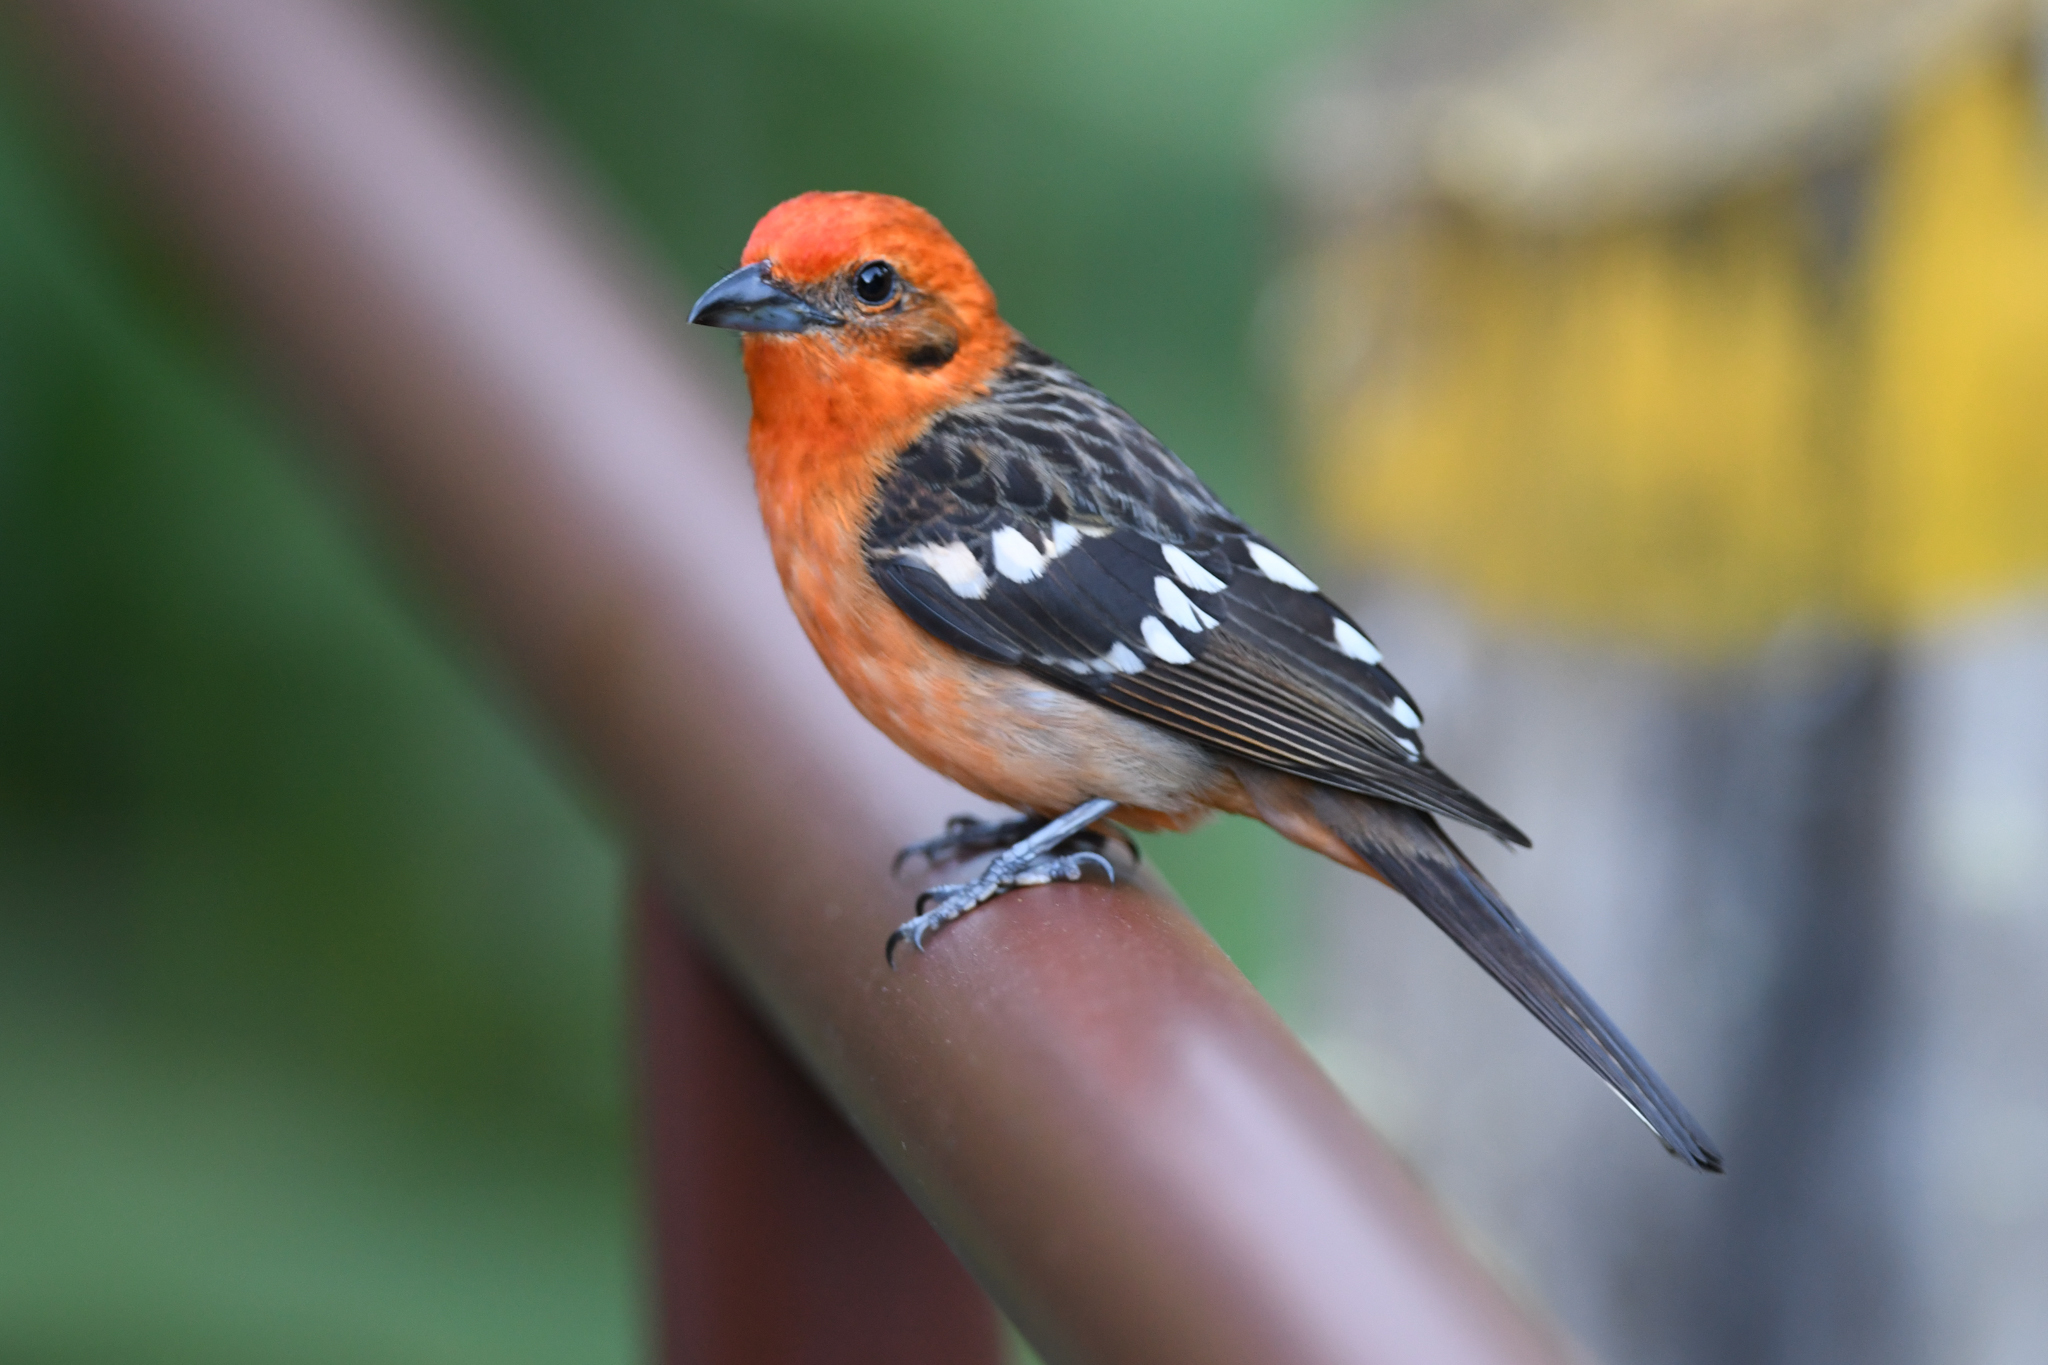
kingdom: Animalia
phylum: Chordata
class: Aves
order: Passeriformes
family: Cardinalidae
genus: Piranga
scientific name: Piranga bidentata
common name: Flame-colored tanager
